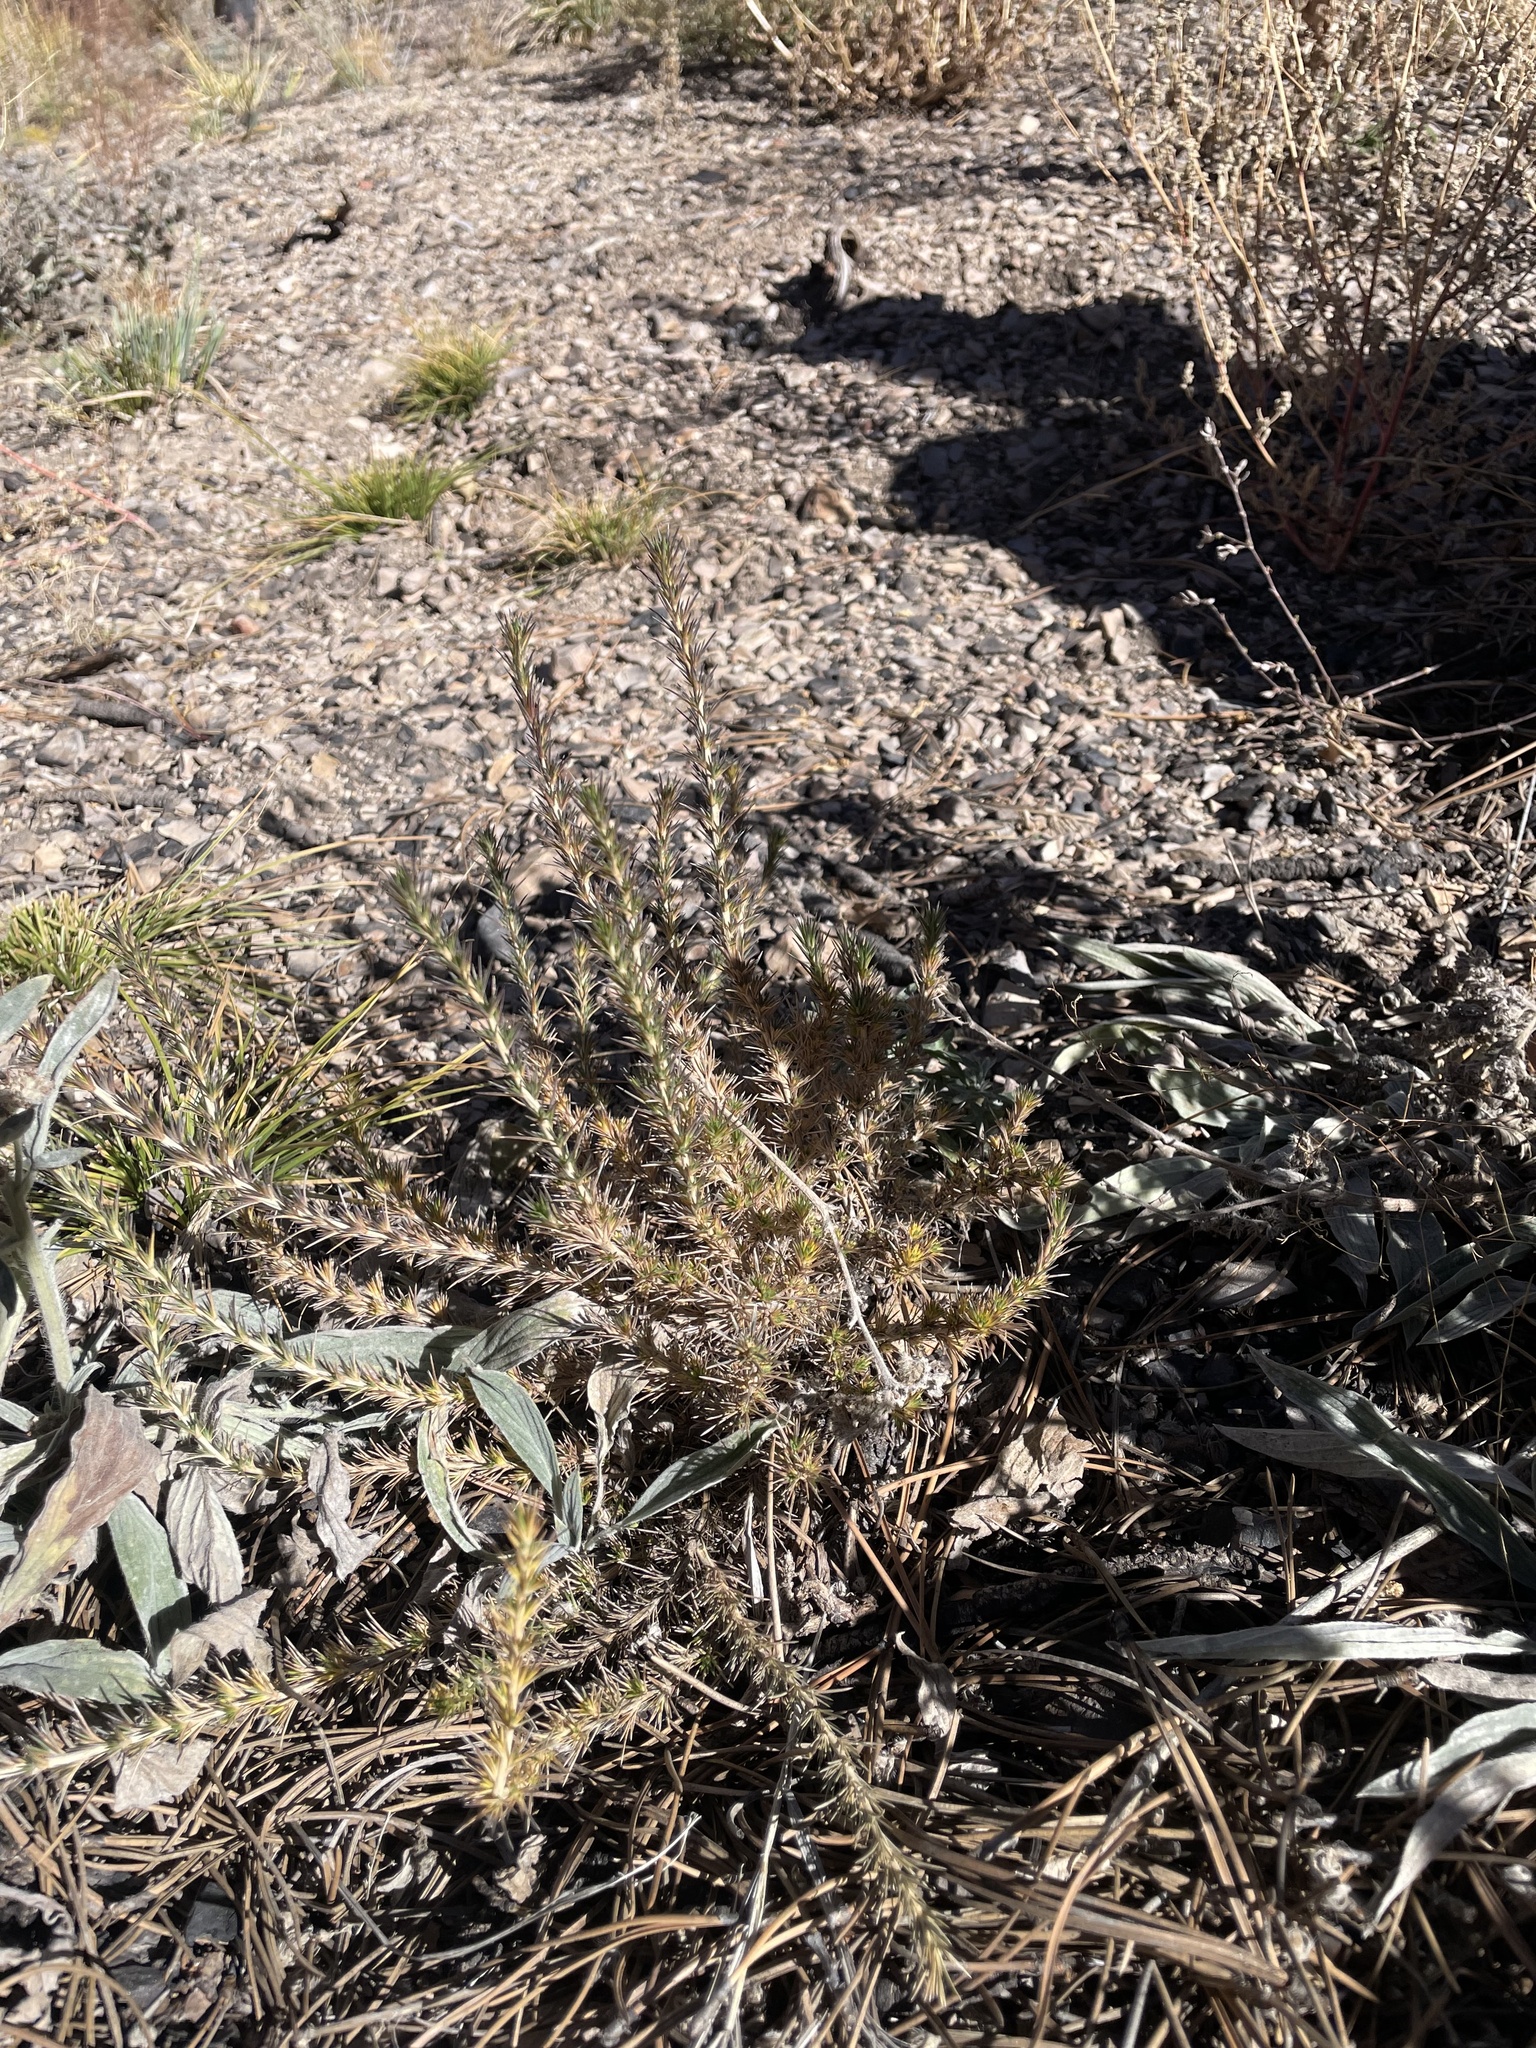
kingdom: Plantae
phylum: Tracheophyta
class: Magnoliopsida
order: Ericales
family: Polemoniaceae
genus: Linanthus
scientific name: Linanthus pungens
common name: Granite prickly phlox
